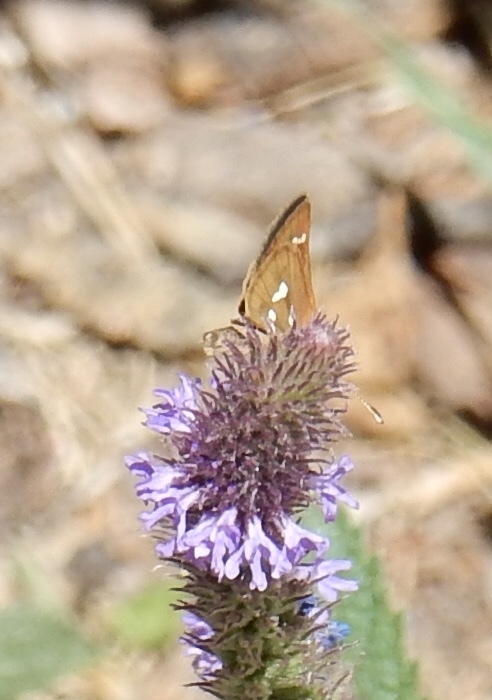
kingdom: Animalia
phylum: Arthropoda
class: Insecta
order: Lepidoptera
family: Hesperiidae
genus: Piruna
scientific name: Piruna polingii
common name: Four-spotted skipperling
